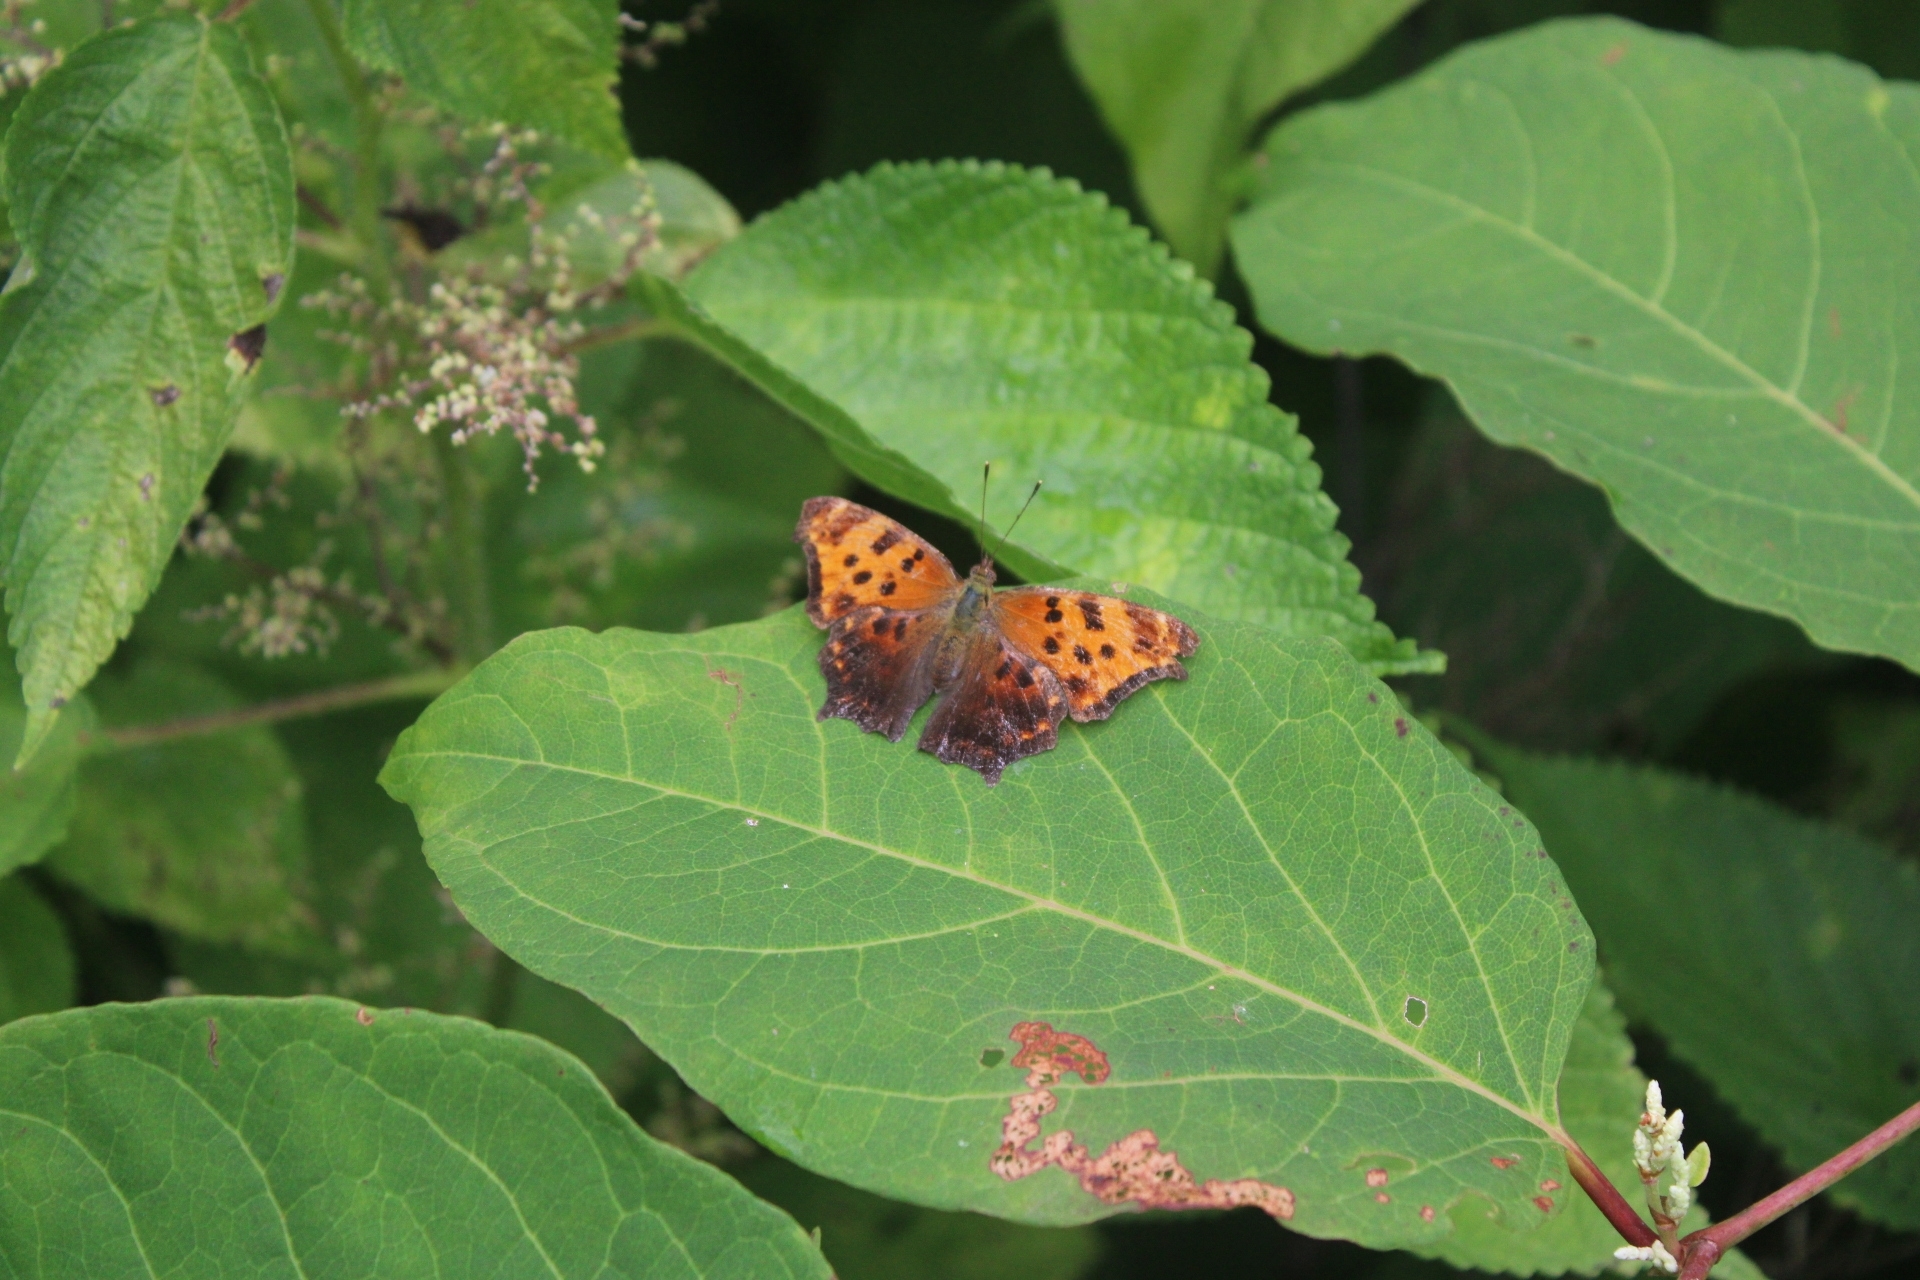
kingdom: Animalia
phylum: Arthropoda
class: Insecta
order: Lepidoptera
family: Nymphalidae
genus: Polygonia
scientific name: Polygonia comma
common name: Eastern comma
